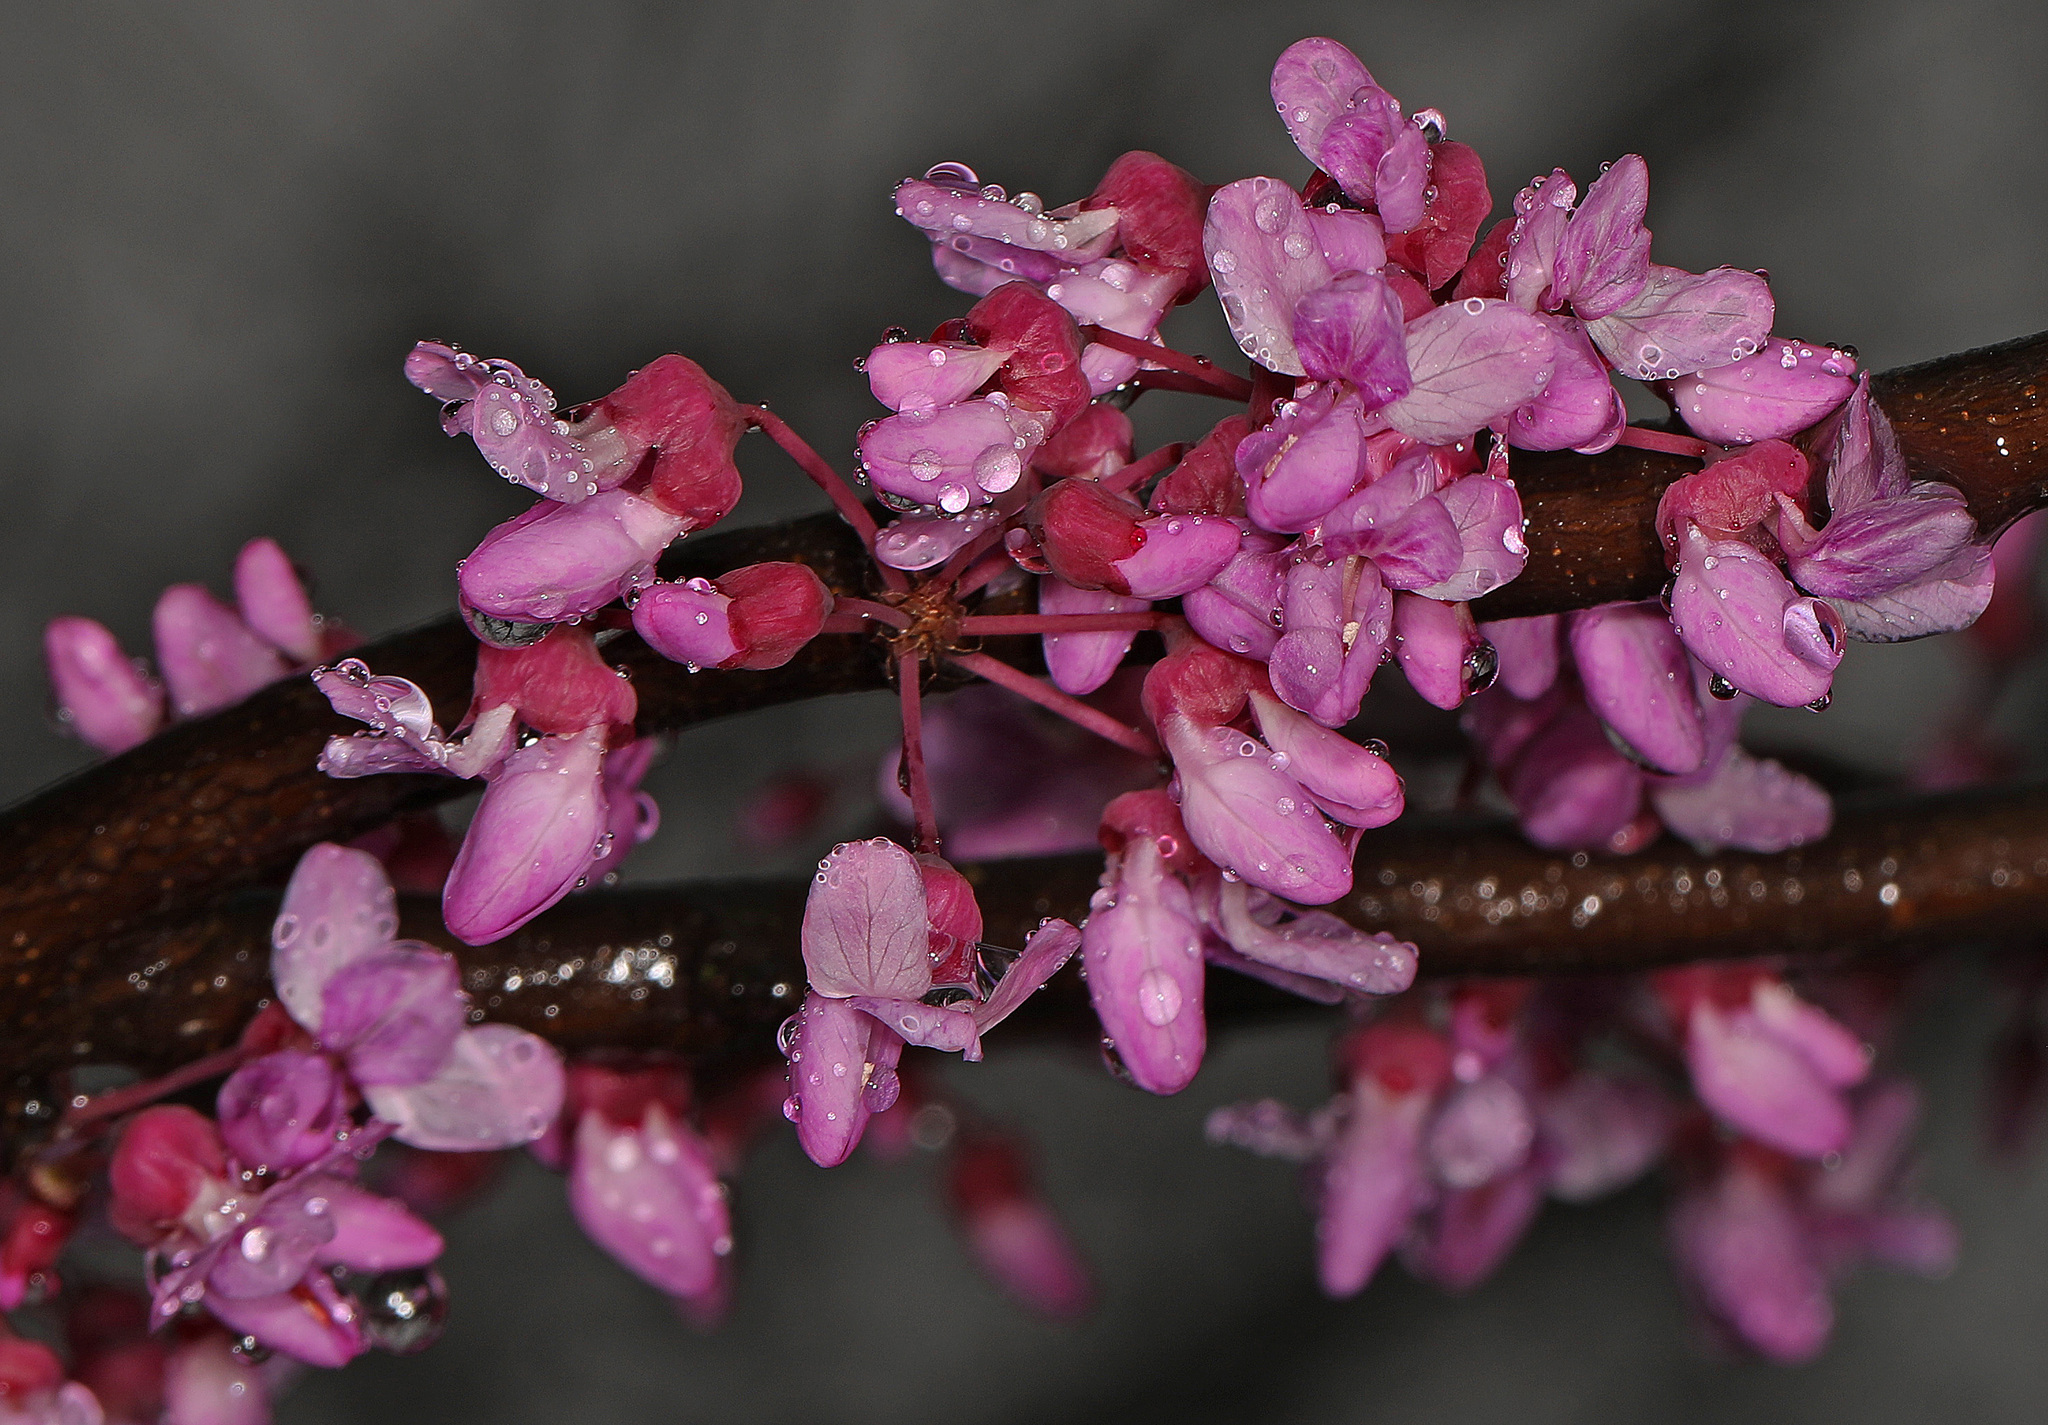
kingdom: Plantae
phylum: Tracheophyta
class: Magnoliopsida
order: Fabales
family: Fabaceae
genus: Cercis
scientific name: Cercis canadensis
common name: Eastern redbud
